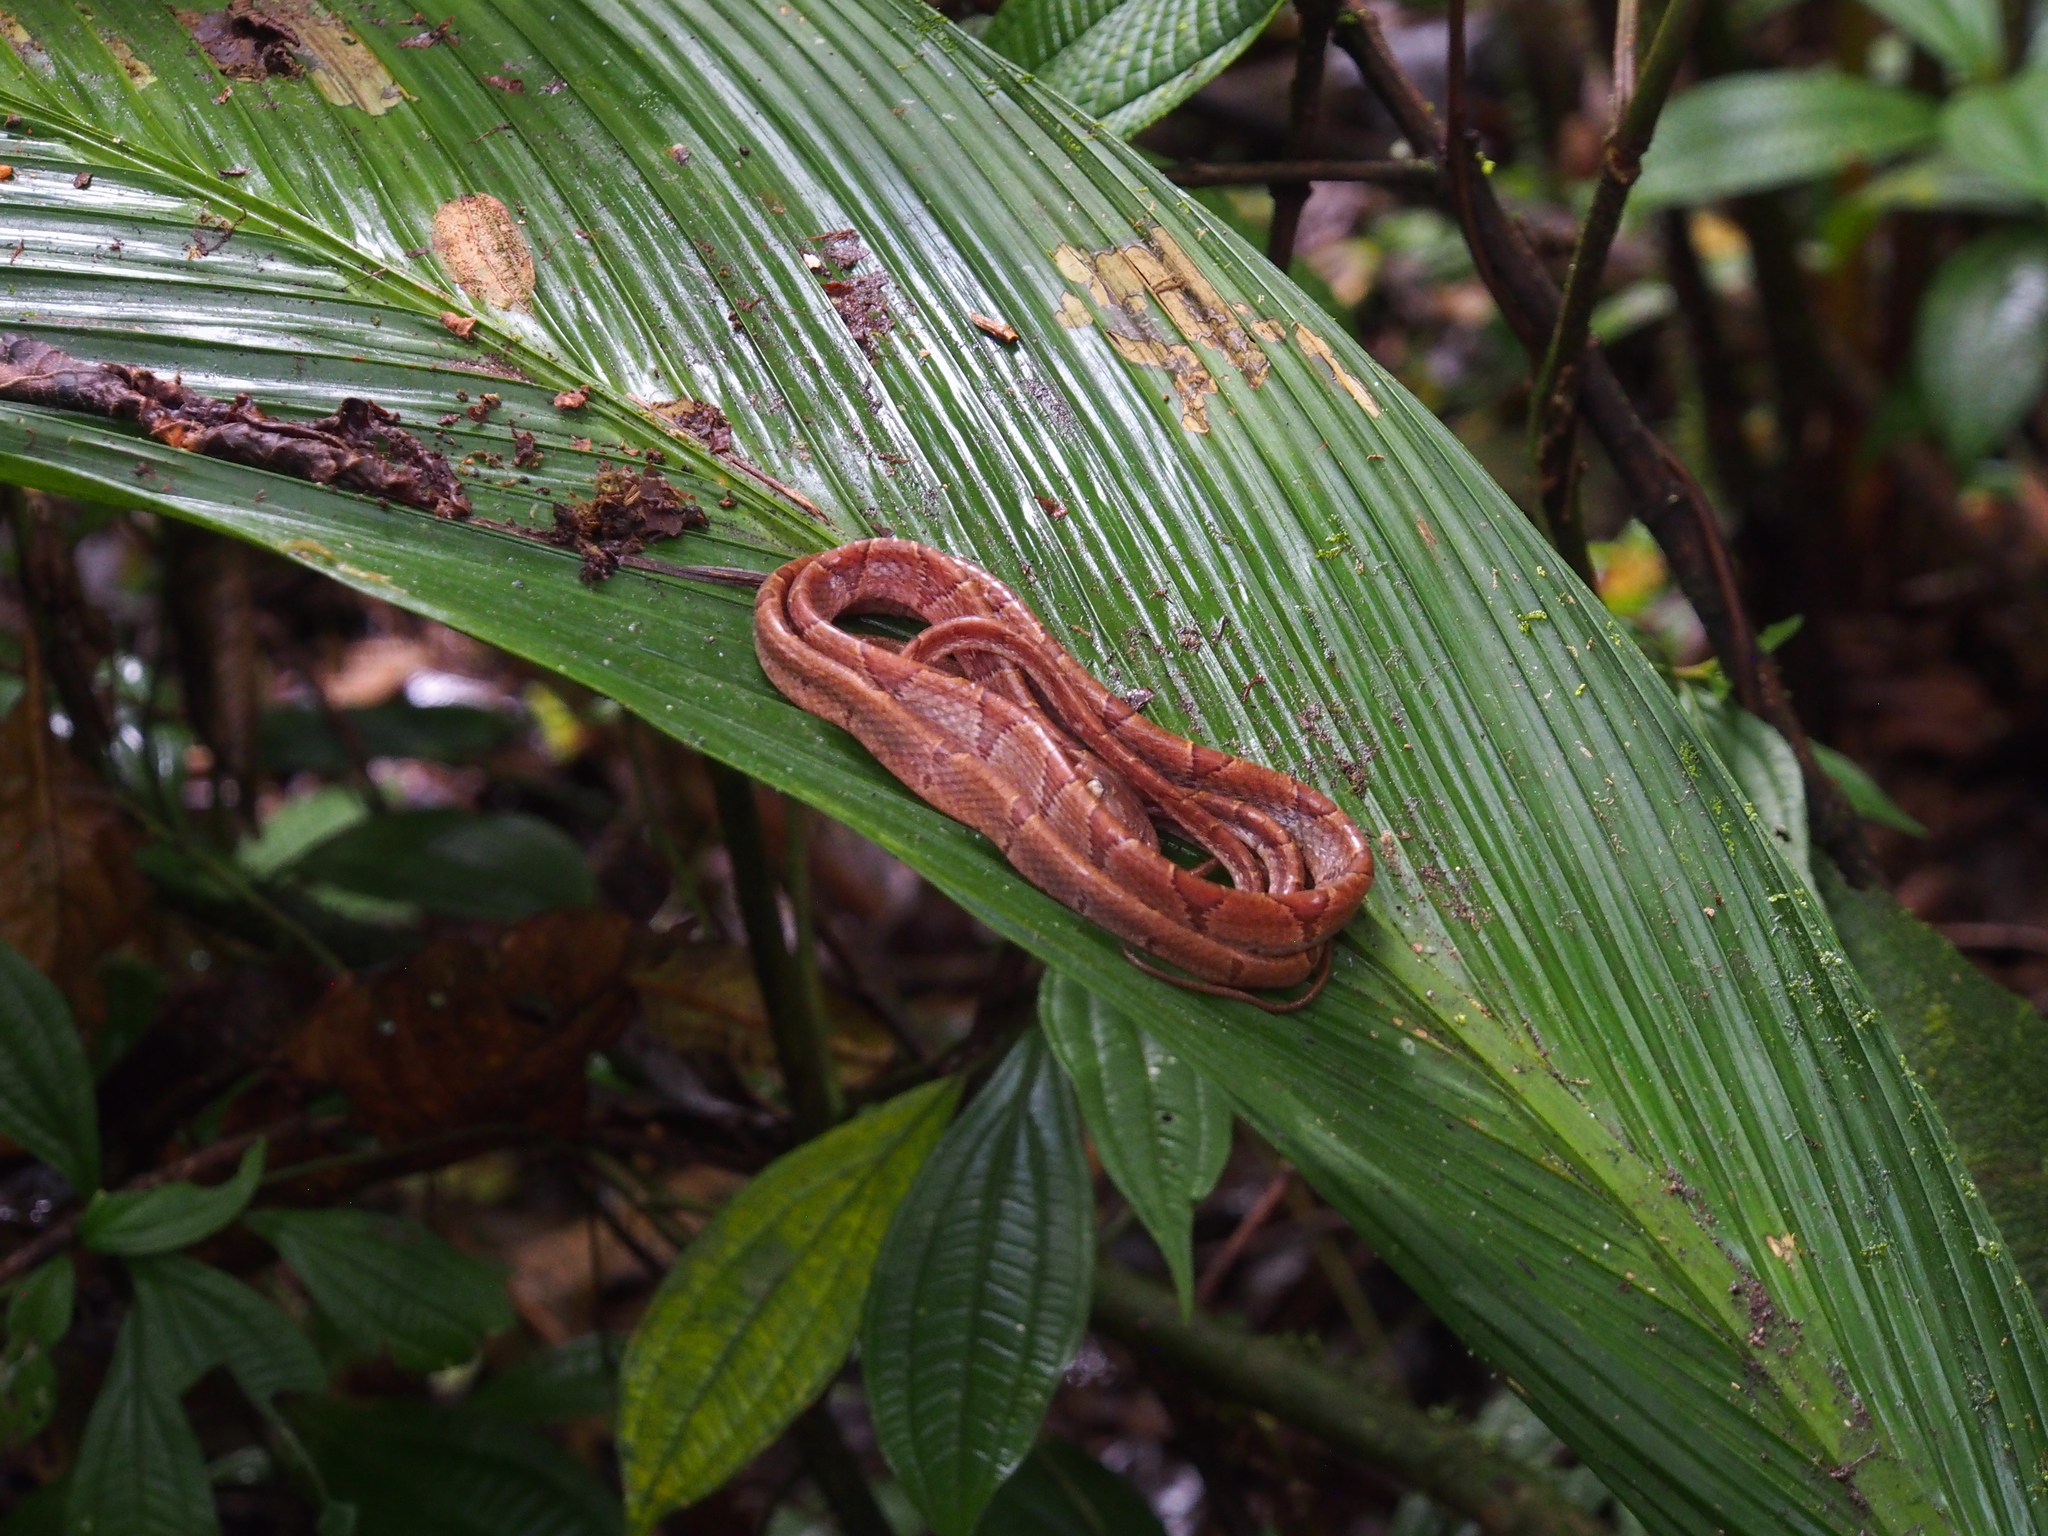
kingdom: Animalia
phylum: Chordata
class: Squamata
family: Colubridae
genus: Imantodes
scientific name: Imantodes cenchoa
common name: Blunthead tree snake
